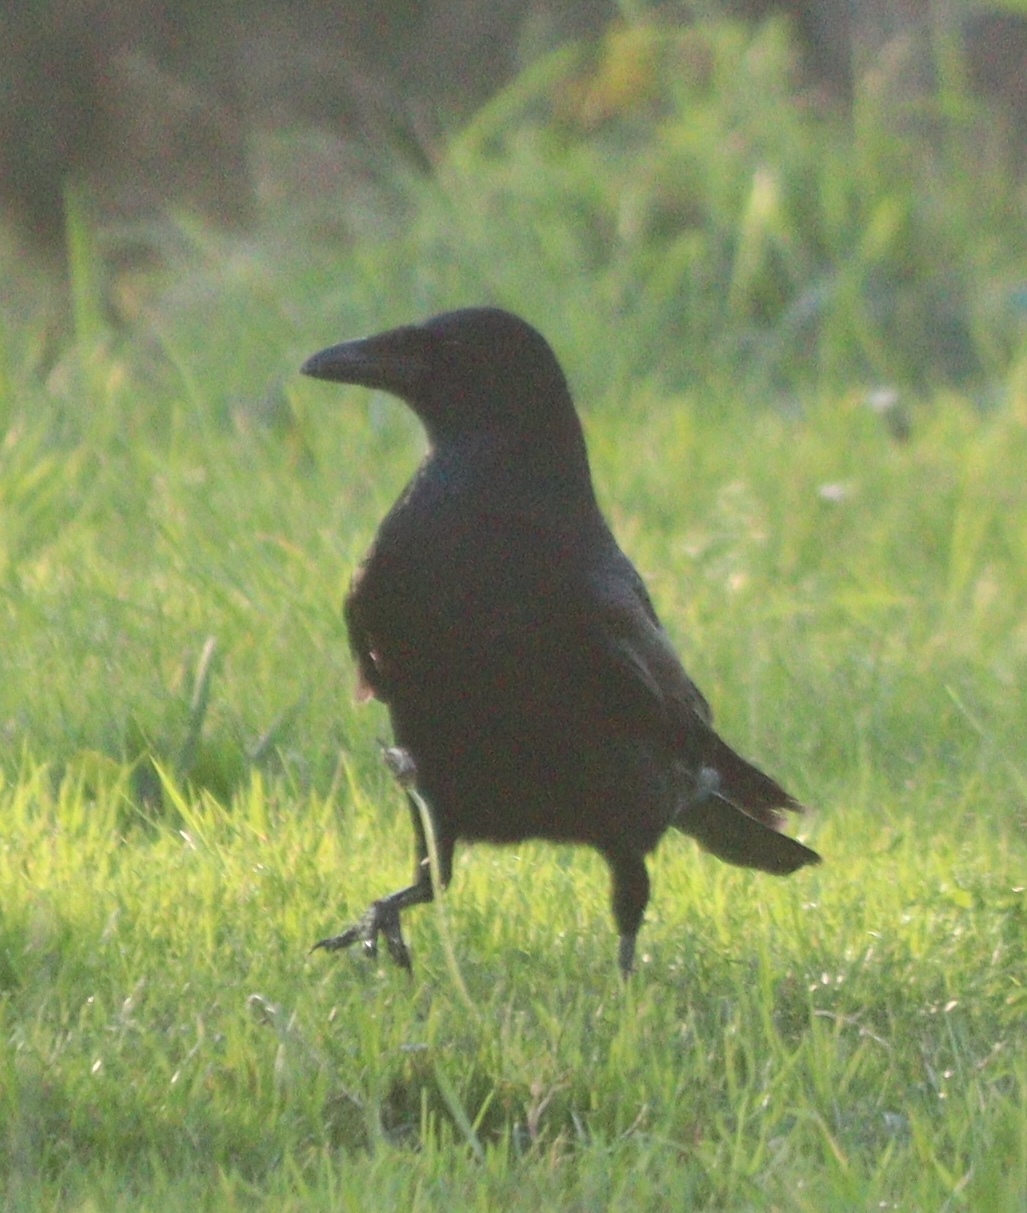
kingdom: Animalia
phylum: Chordata
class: Aves
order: Passeriformes
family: Corvidae
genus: Corvus
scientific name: Corvus corone
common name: Carrion crow
